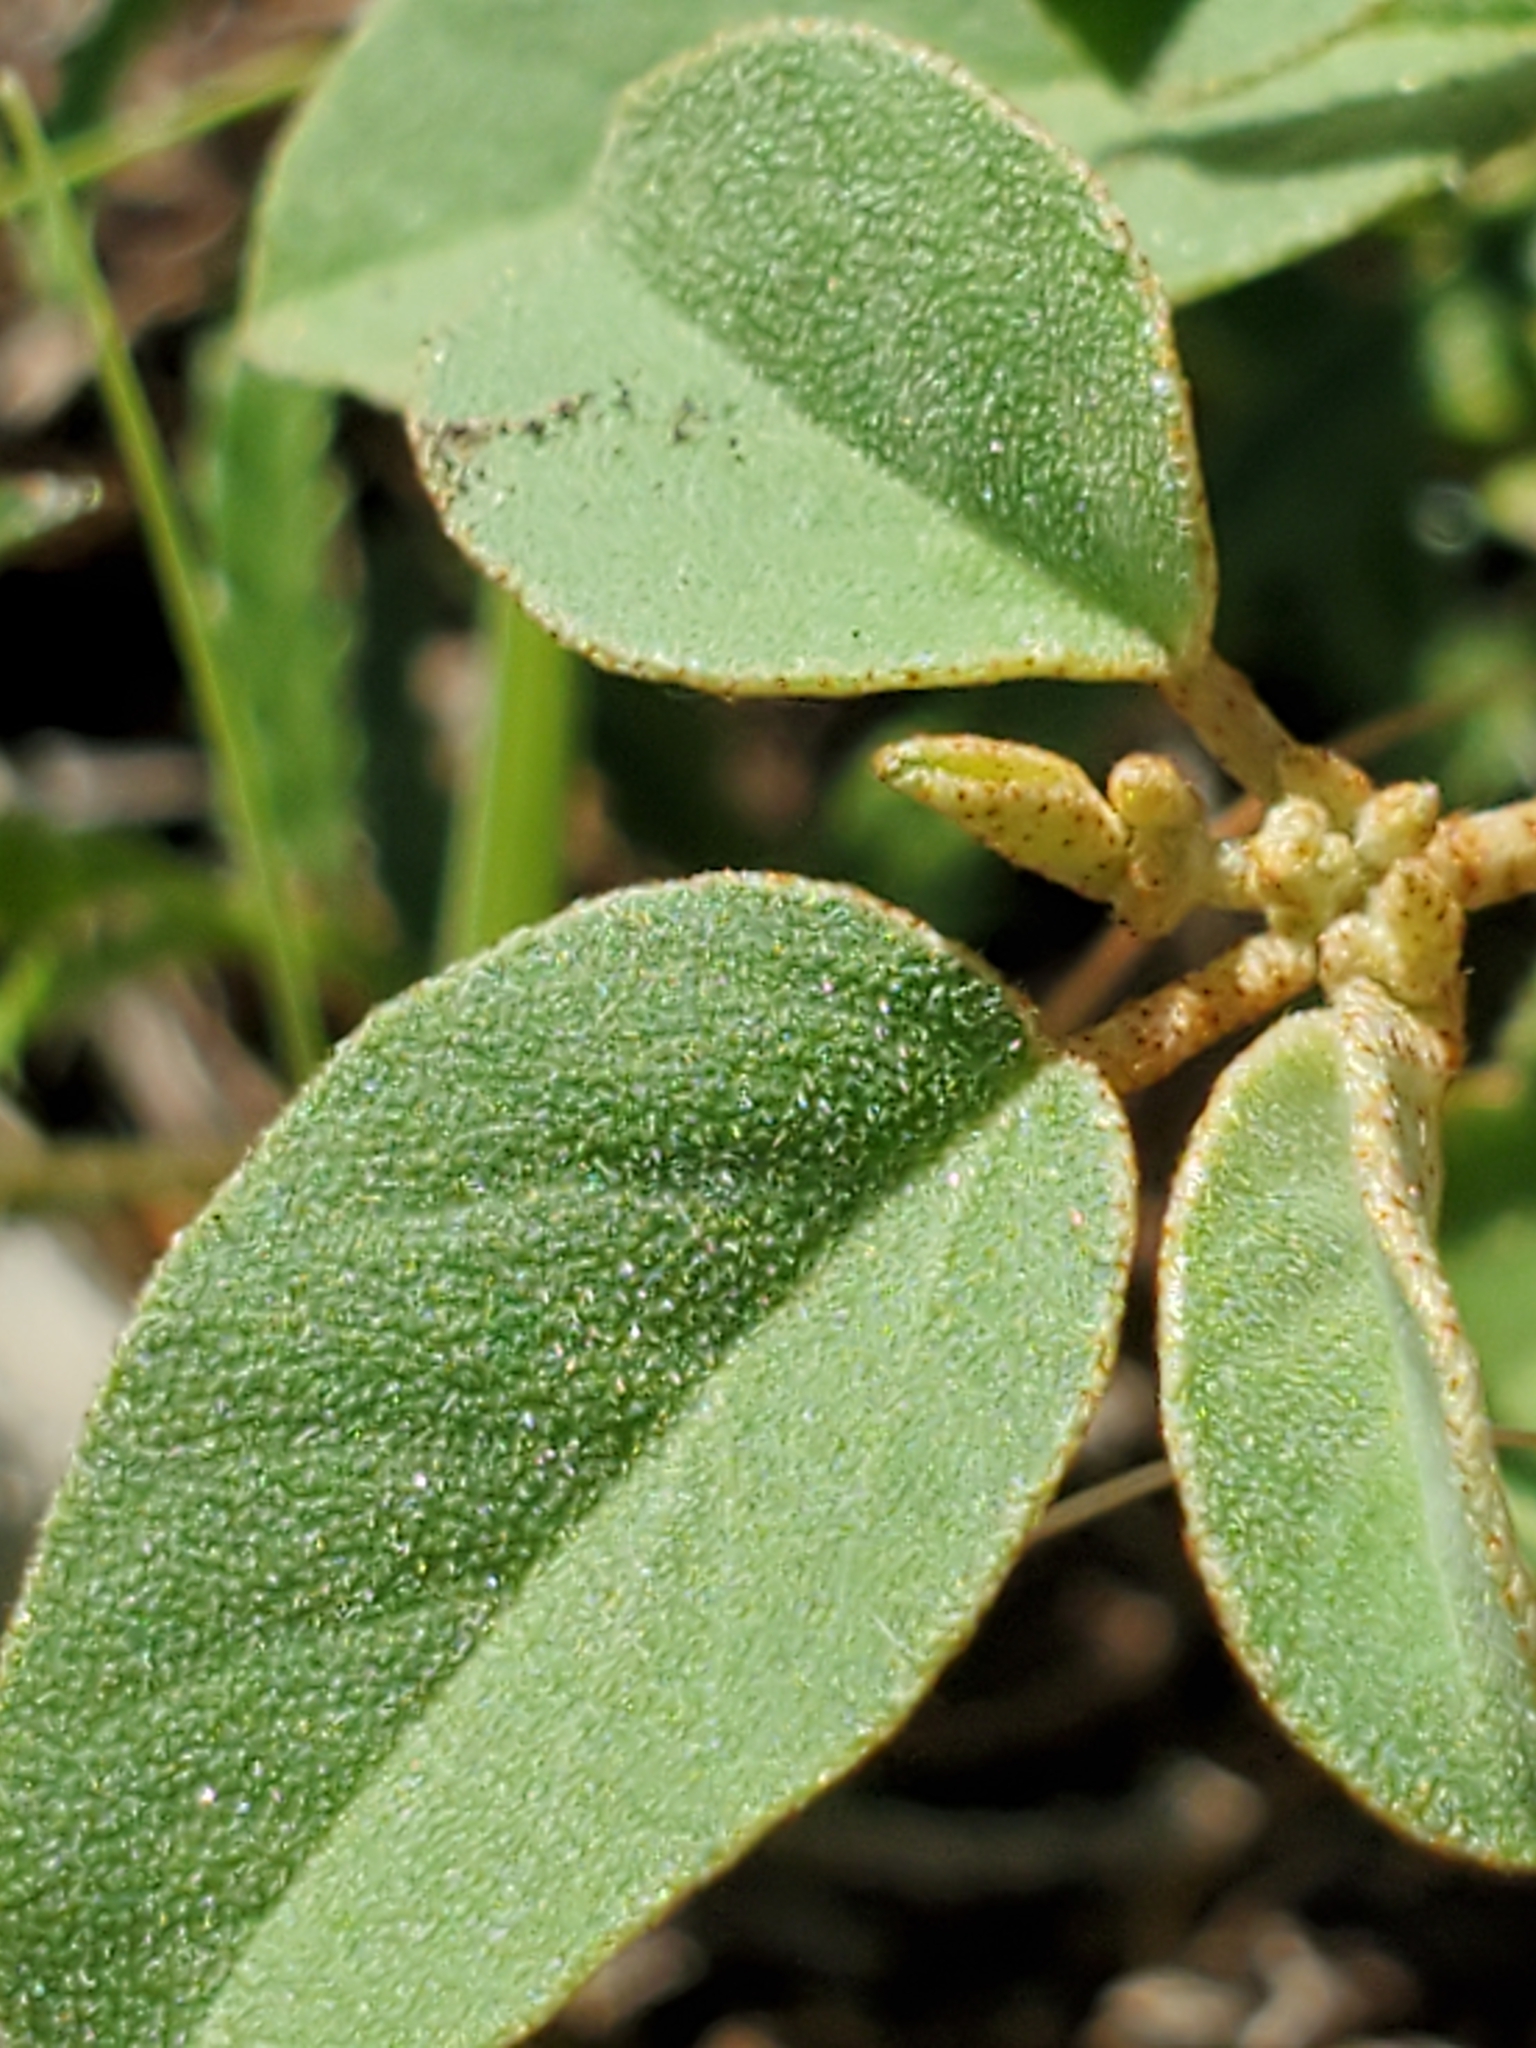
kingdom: Plantae
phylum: Tracheophyta
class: Magnoliopsida
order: Malpighiales
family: Euphorbiaceae
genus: Croton
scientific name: Croton monanthogynus
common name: One-seed croton
